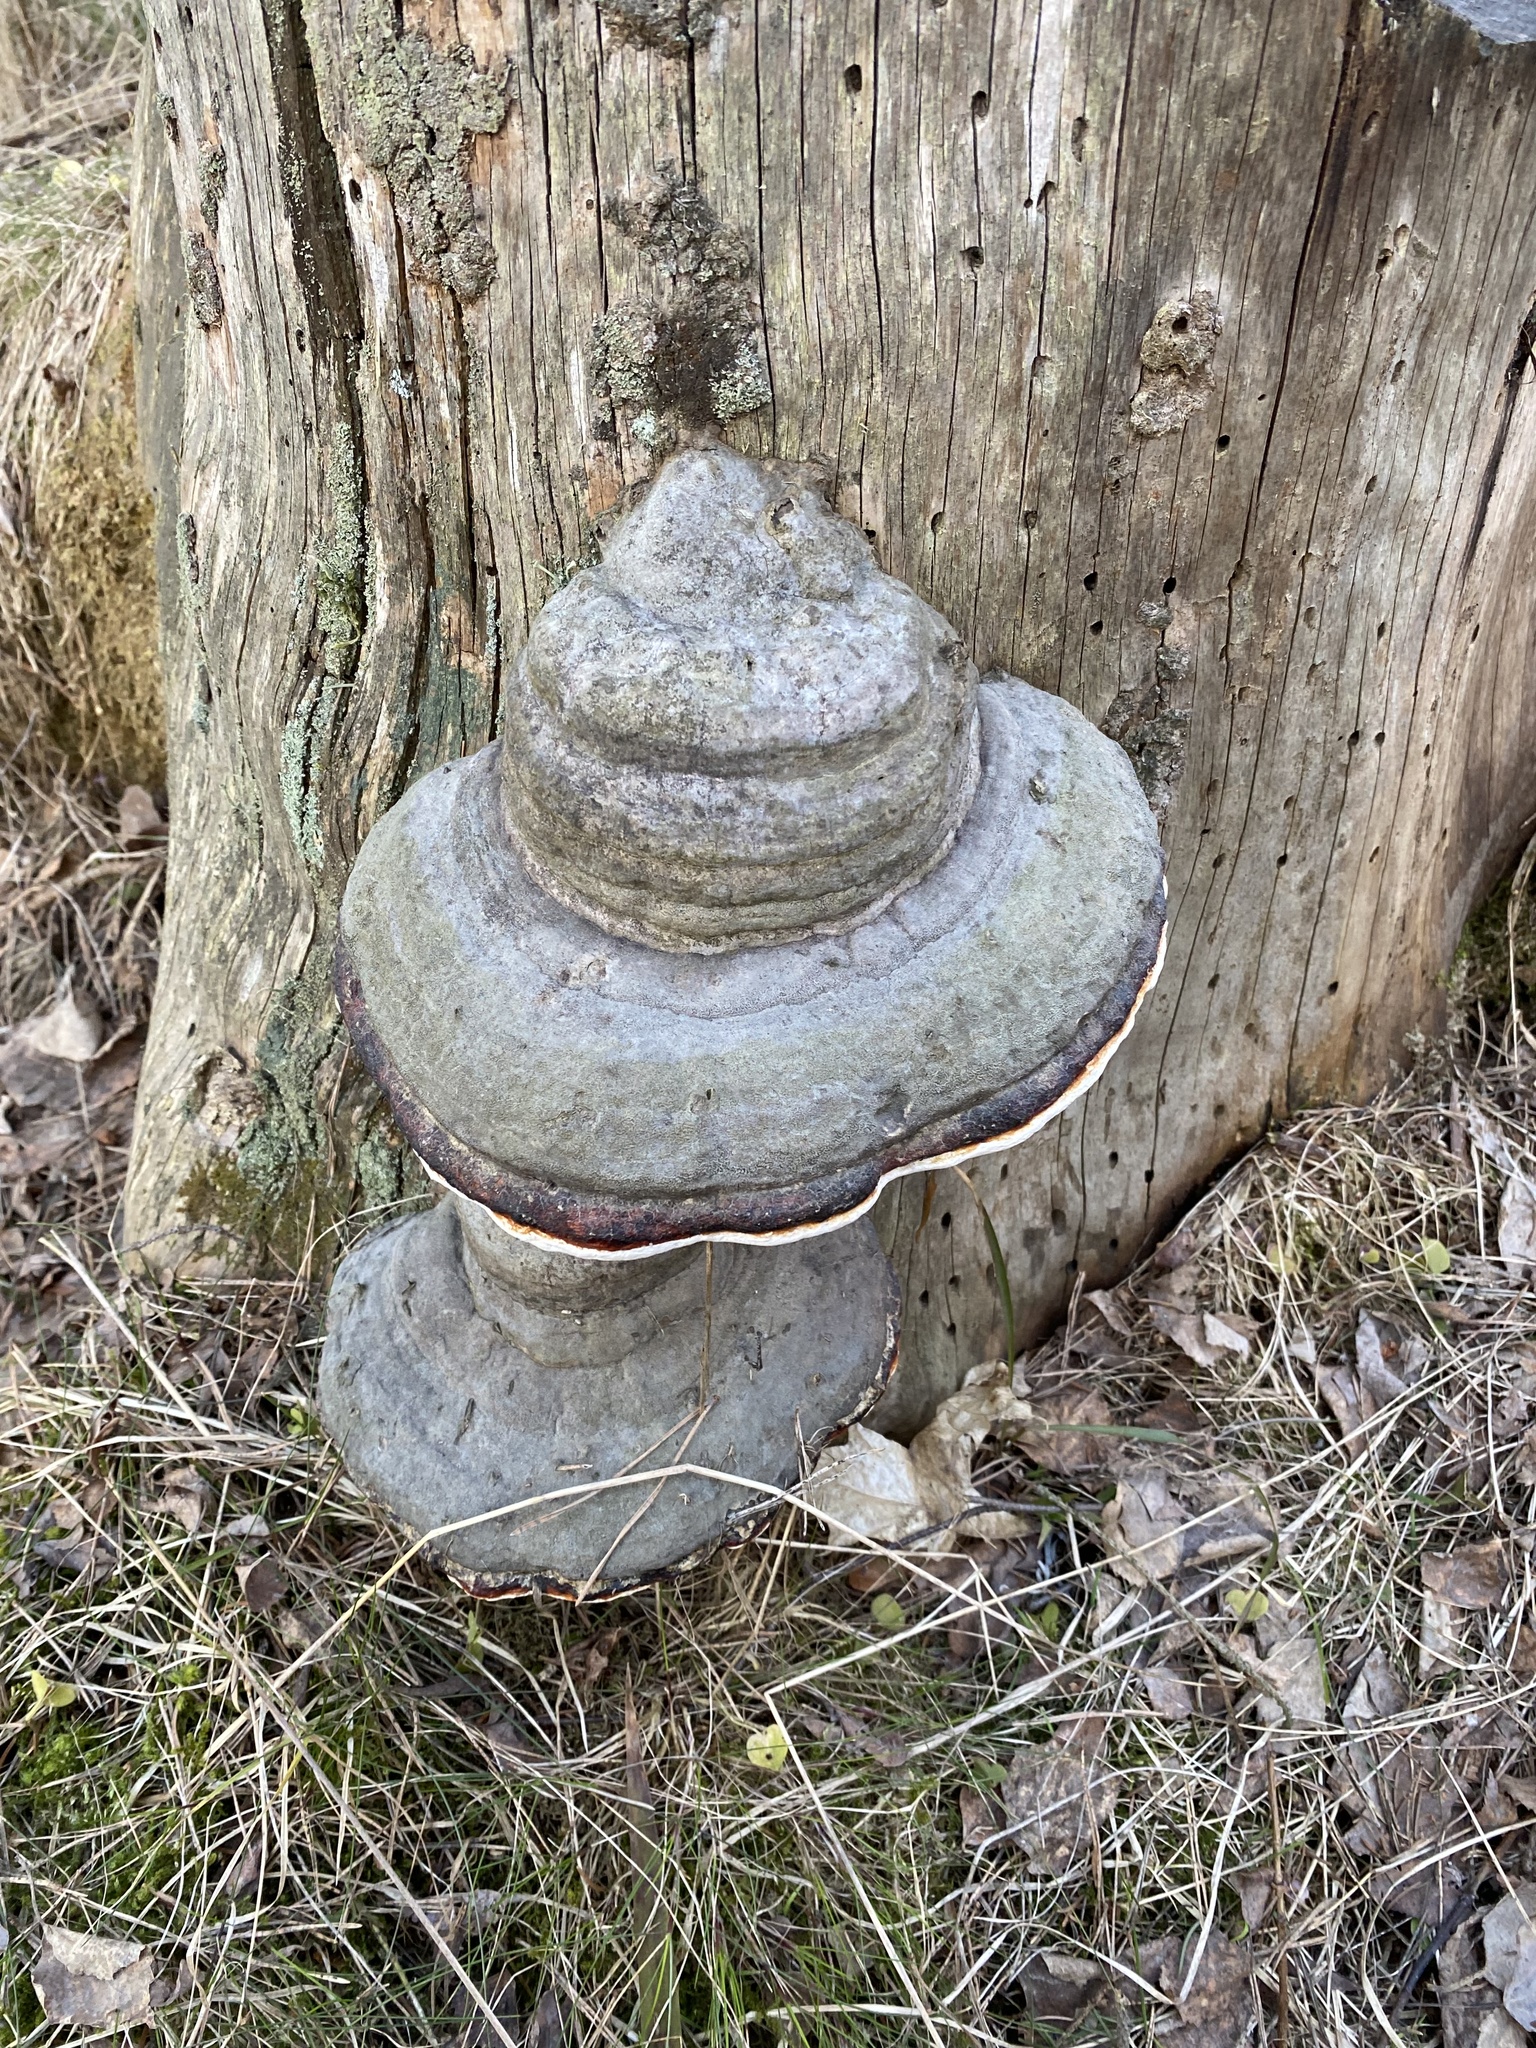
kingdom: Fungi
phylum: Basidiomycota
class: Agaricomycetes
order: Polyporales
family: Polyporaceae
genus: Fomes
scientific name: Fomes fomentarius
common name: Hoof fungus
